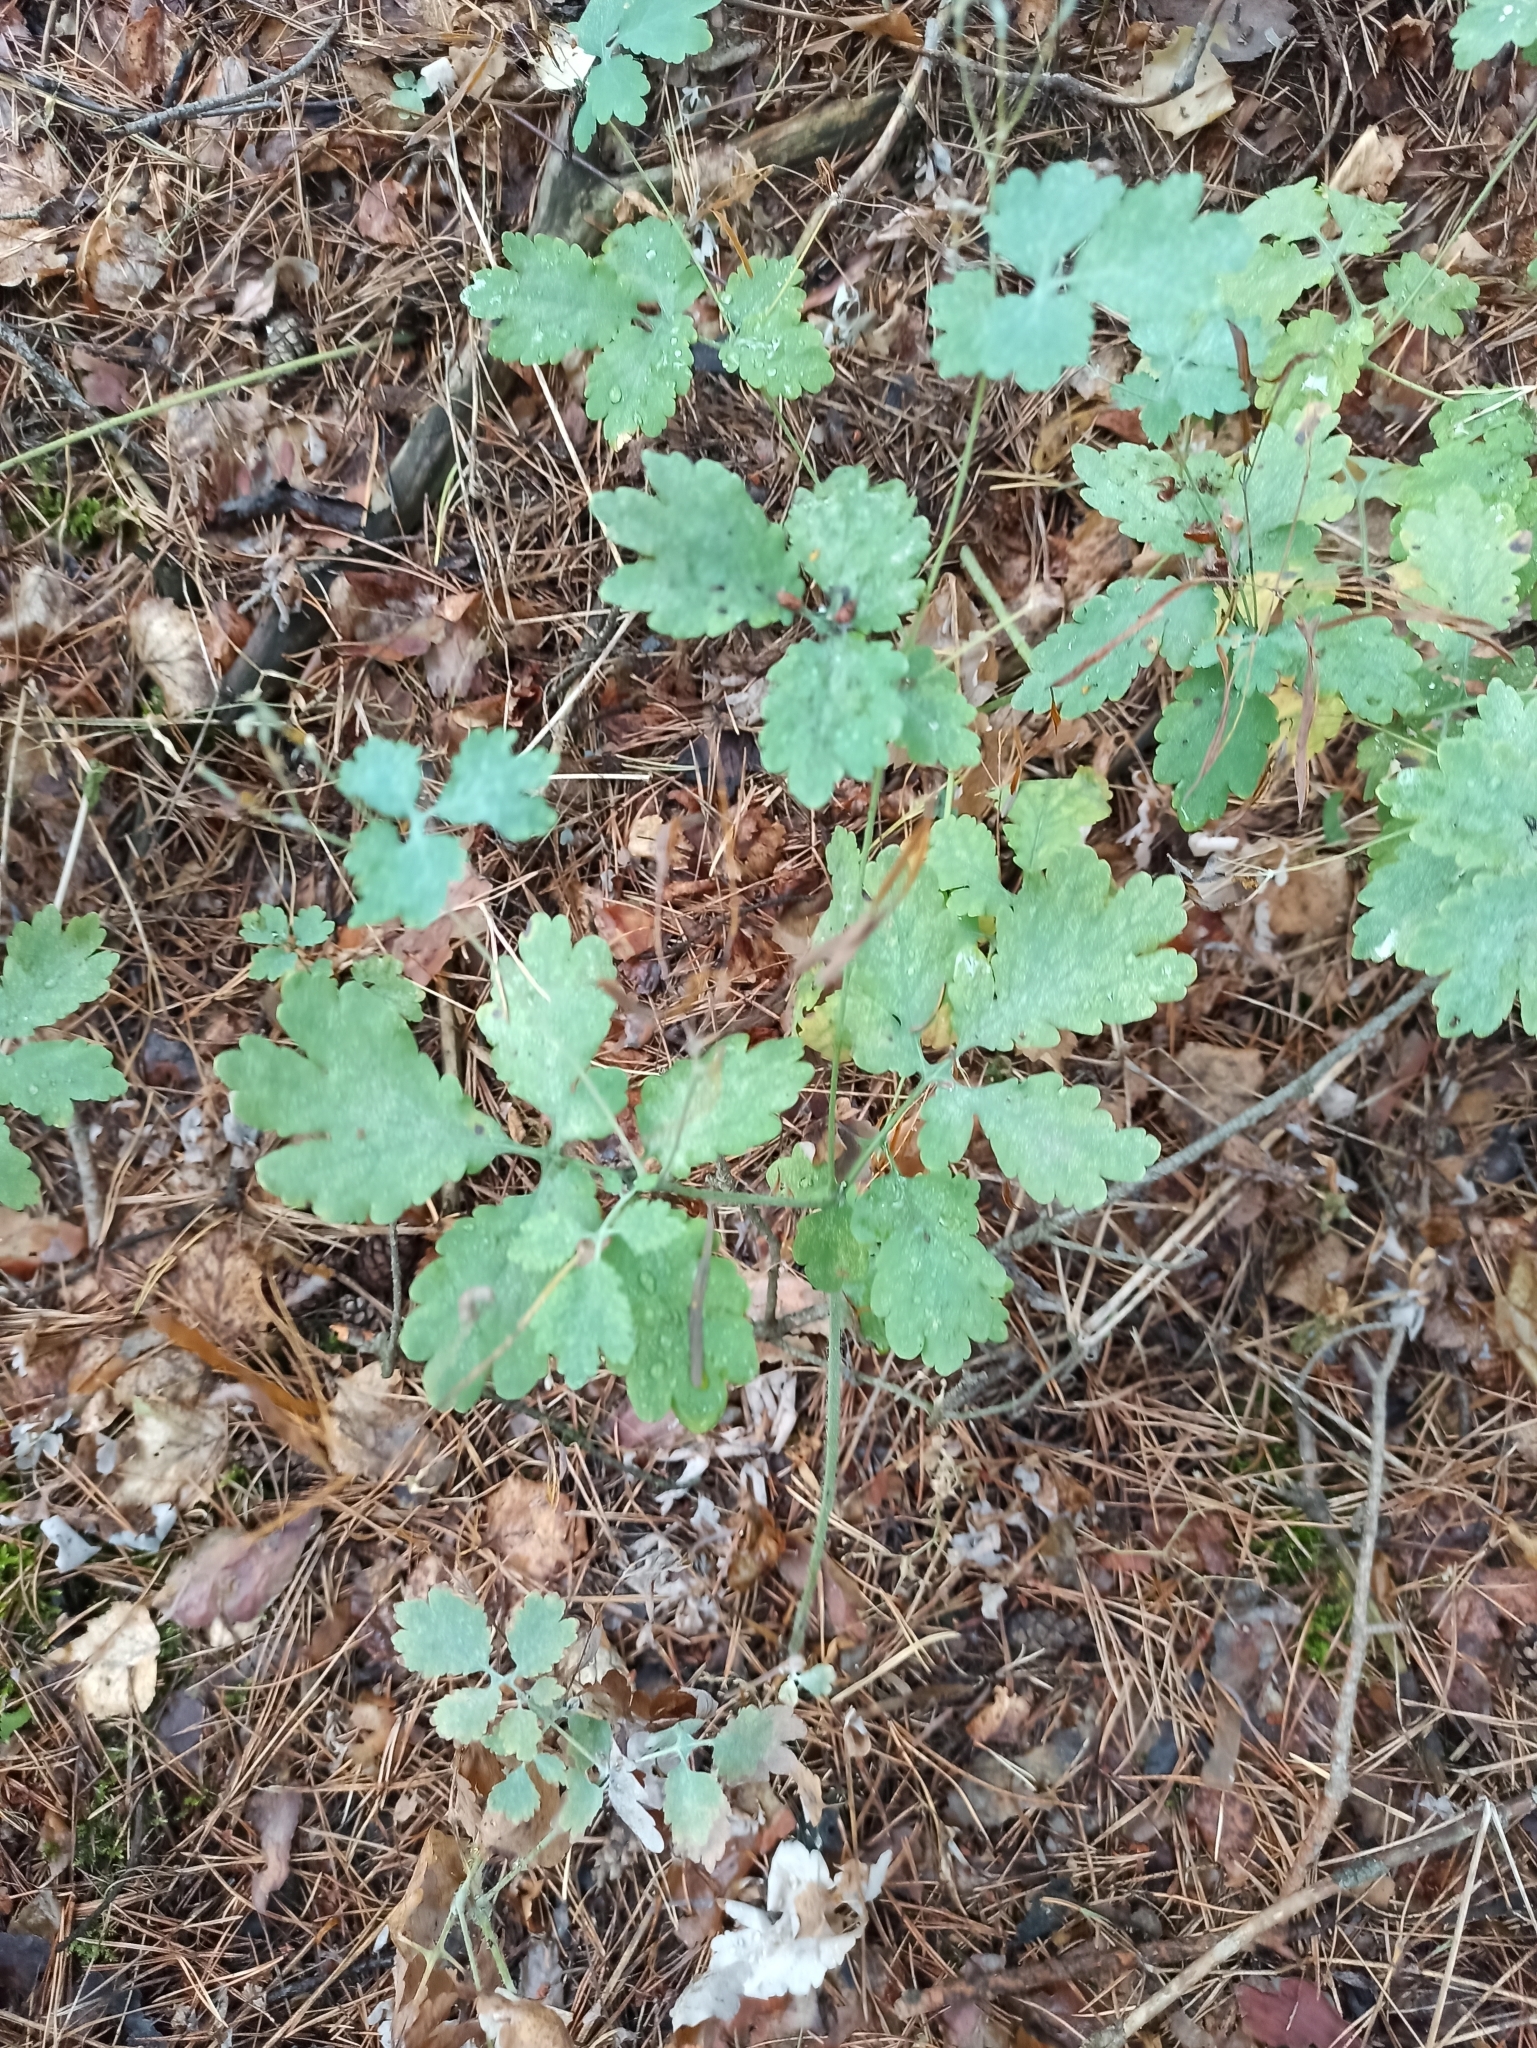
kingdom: Plantae
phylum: Tracheophyta
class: Magnoliopsida
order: Ranunculales
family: Papaveraceae
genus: Chelidonium
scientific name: Chelidonium majus
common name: Greater celandine
